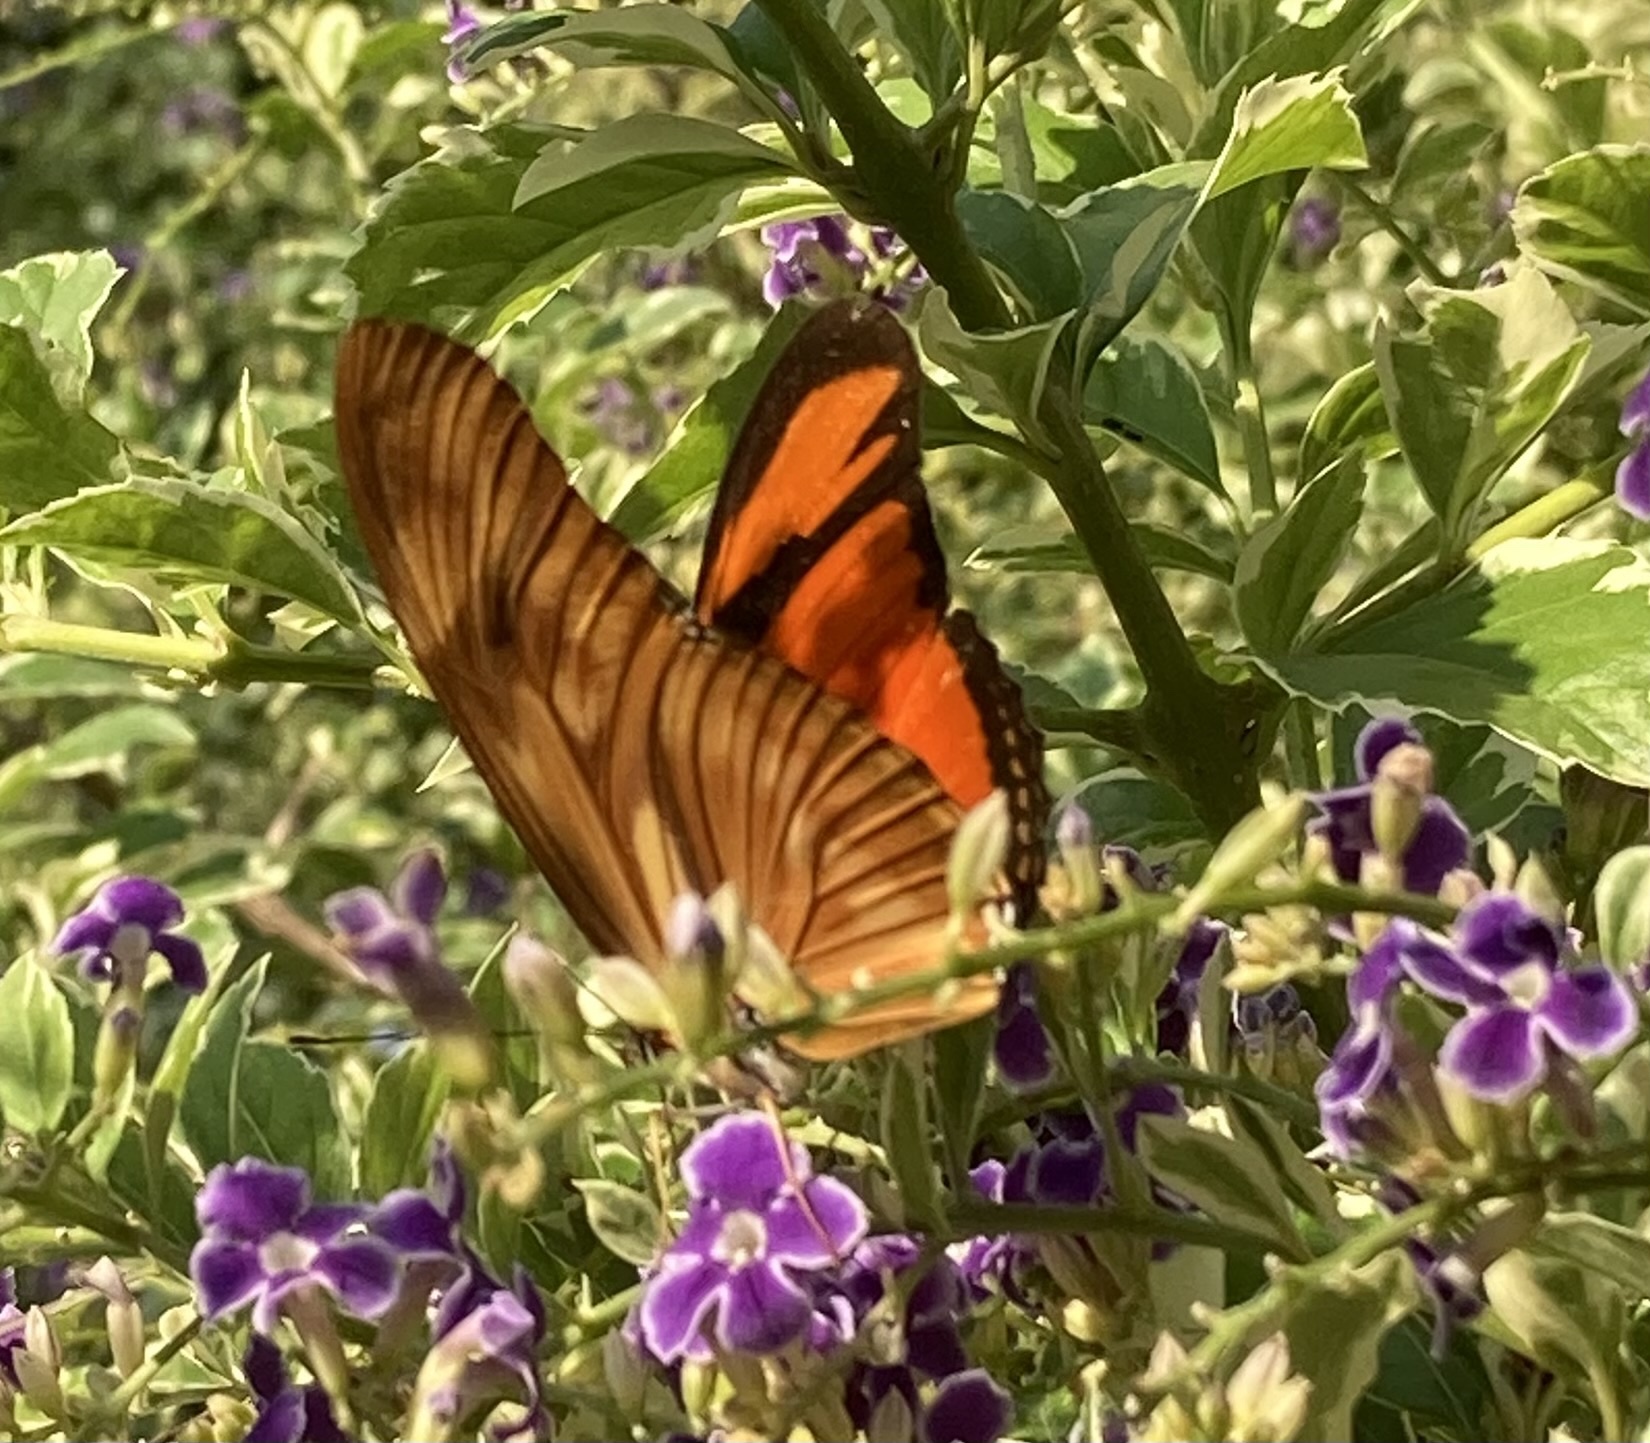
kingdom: Animalia
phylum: Arthropoda
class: Insecta
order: Lepidoptera
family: Nymphalidae
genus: Dryas
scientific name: Dryas iulia
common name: Flambeau
